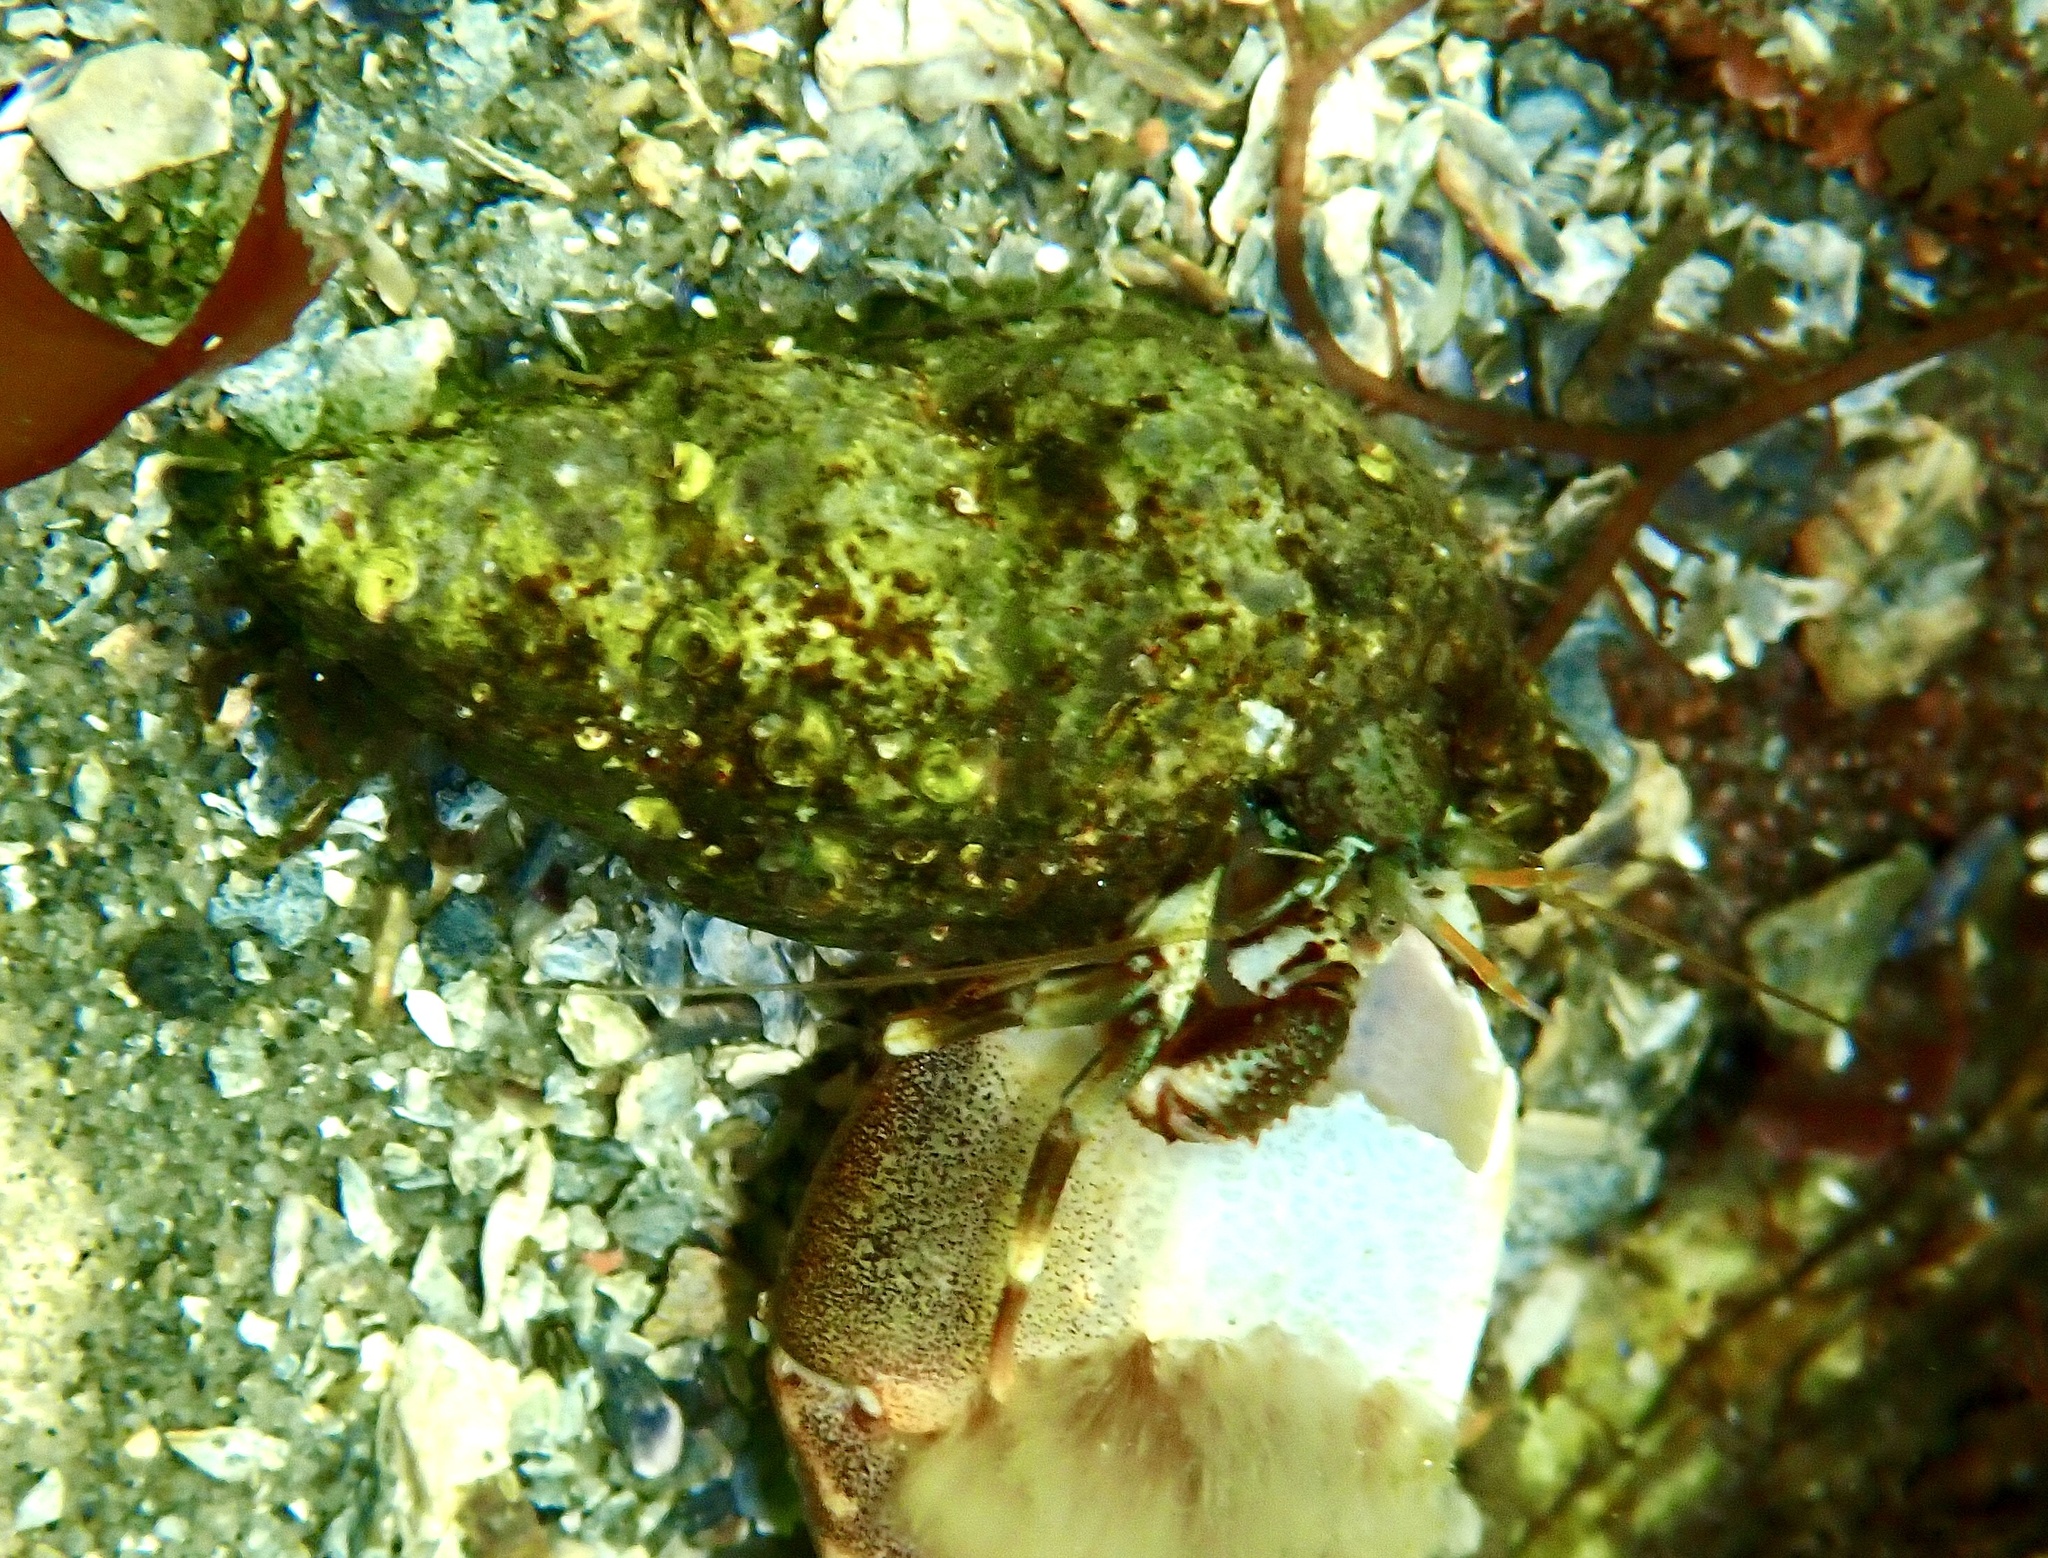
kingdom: Animalia
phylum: Arthropoda
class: Malacostraca
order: Decapoda
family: Paguridae
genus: Pagurus
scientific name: Pagurus bernhardus
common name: Hermit crab
